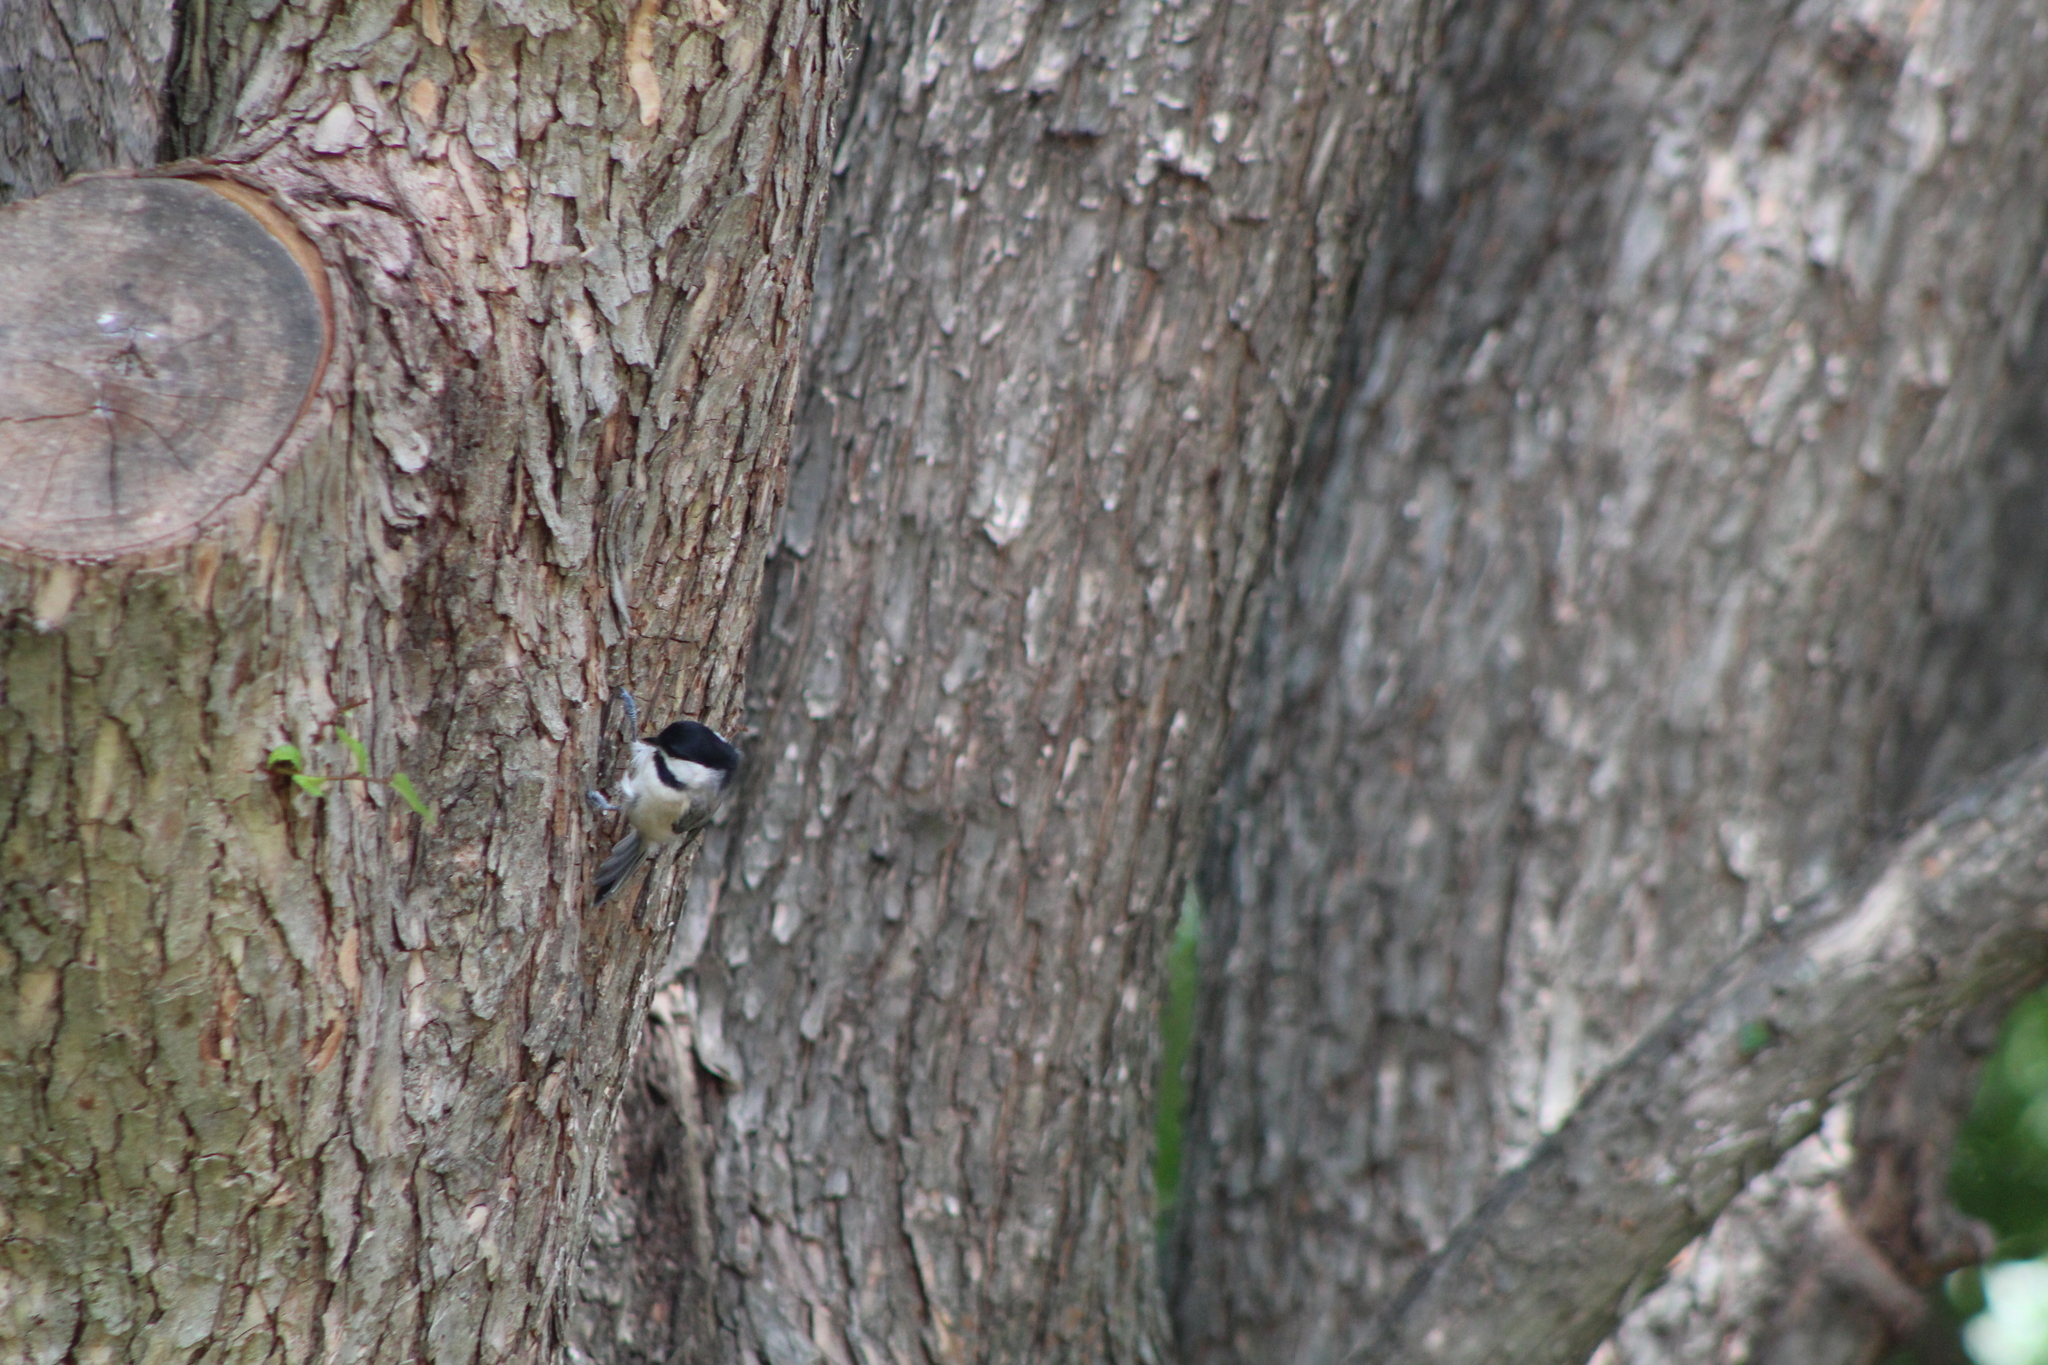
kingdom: Animalia
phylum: Chordata
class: Aves
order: Passeriformes
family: Paridae
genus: Poecile
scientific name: Poecile carolinensis
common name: Carolina chickadee
